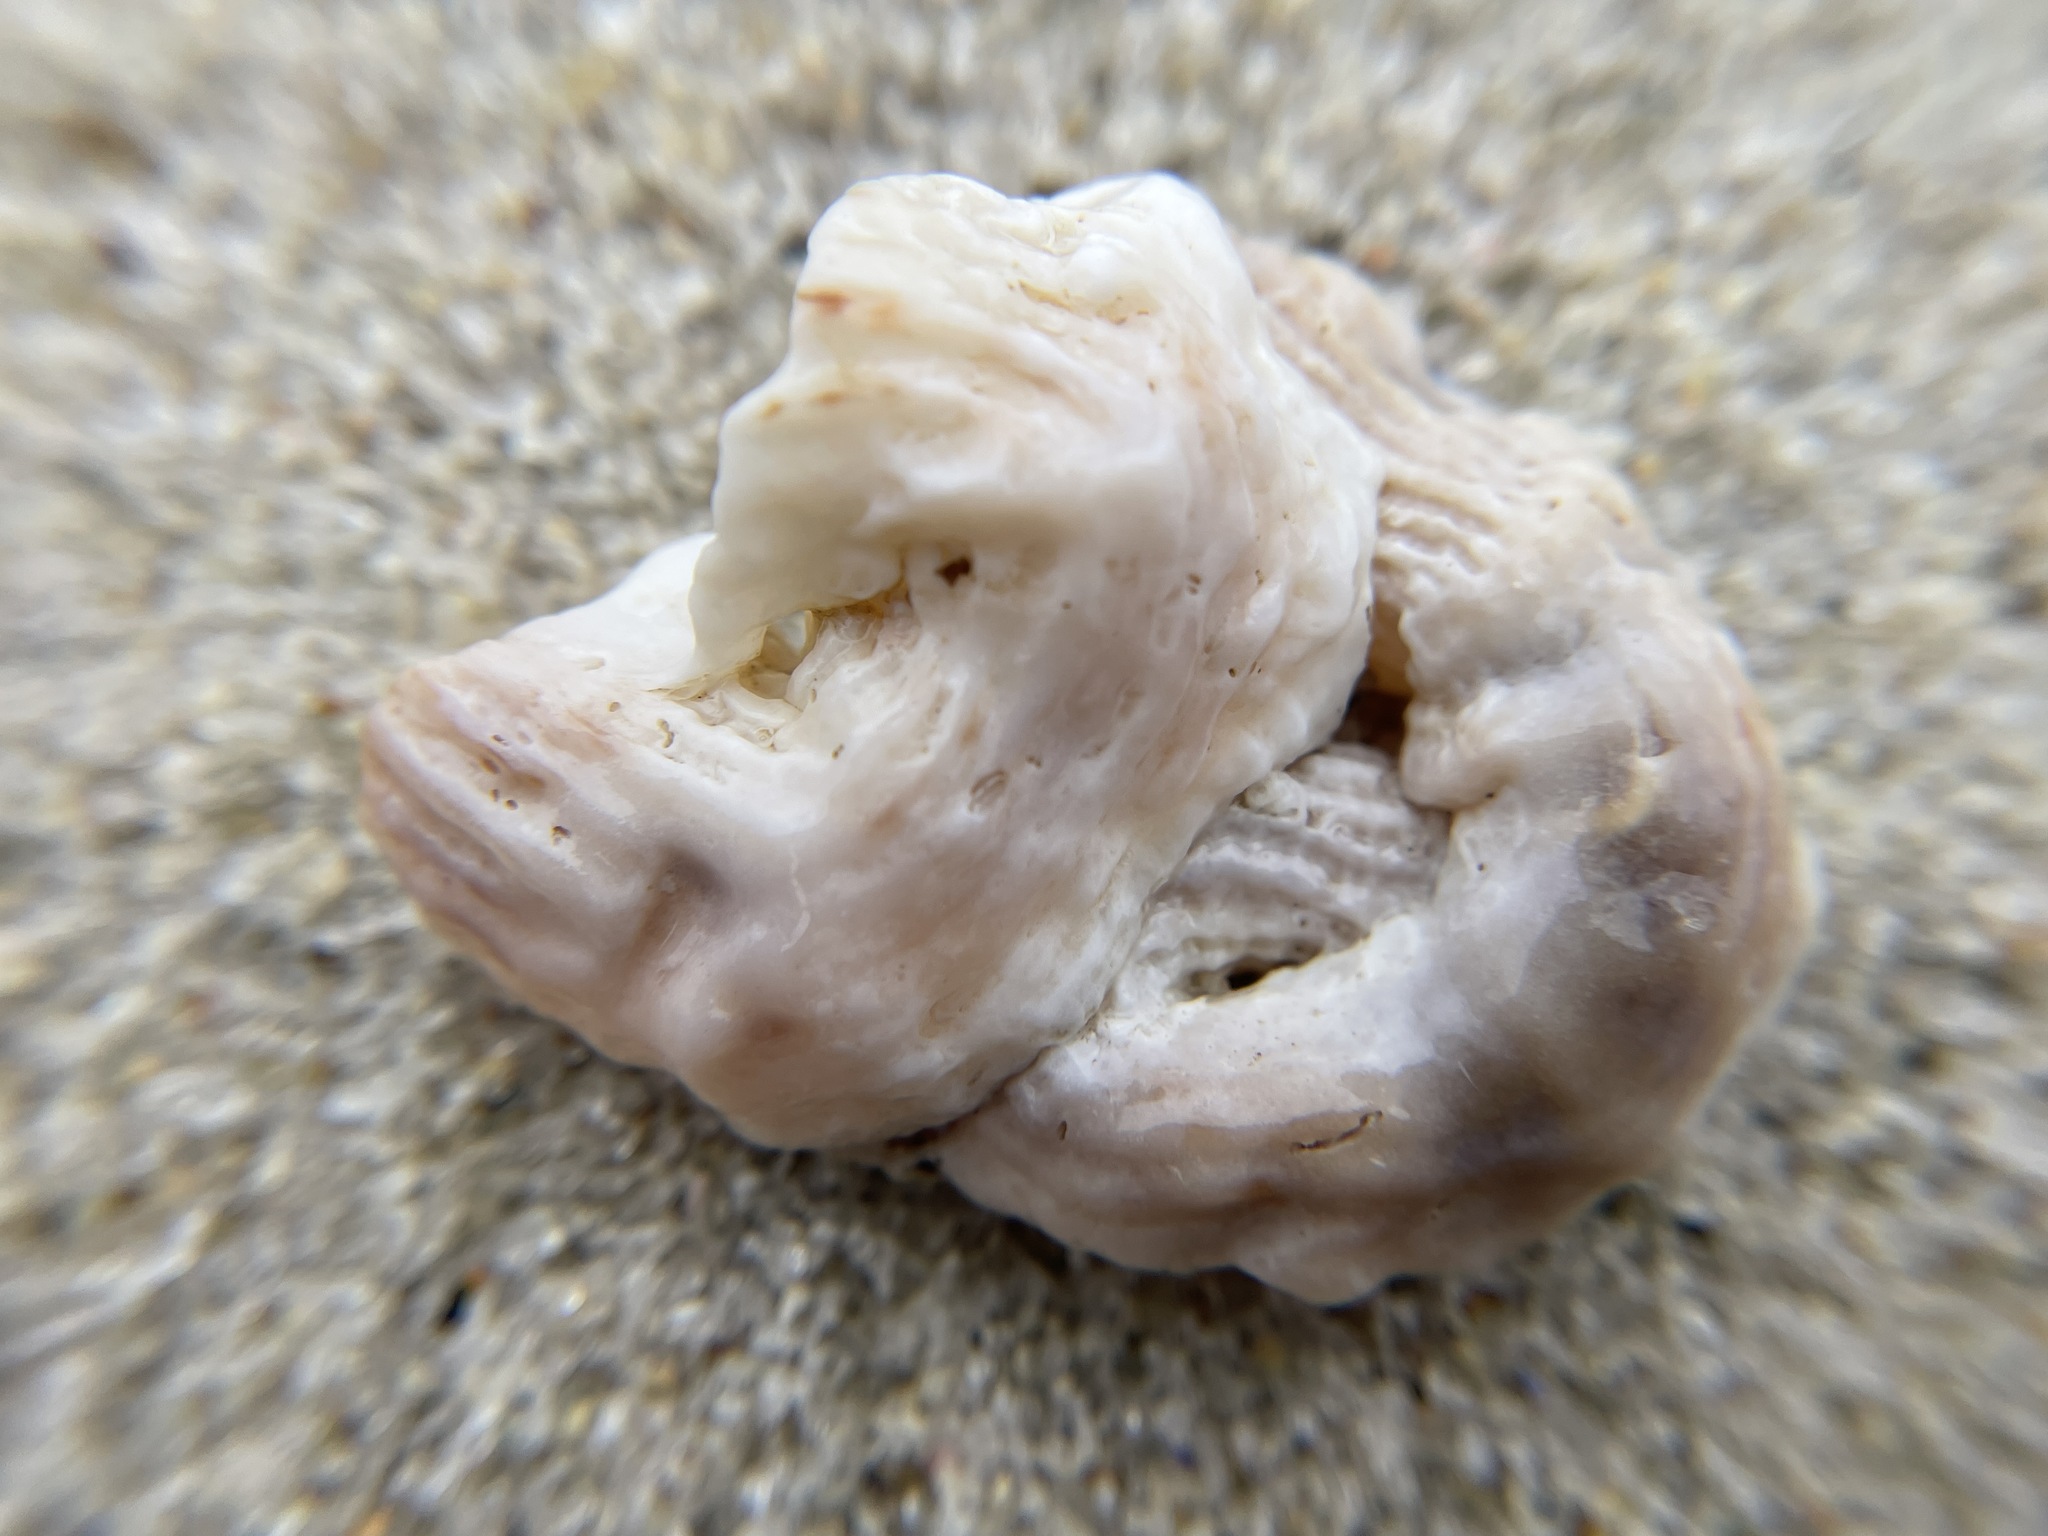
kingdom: Animalia
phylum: Mollusca
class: Gastropoda
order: Littorinimorpha
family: Vermetidae
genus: Thylacodes
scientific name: Thylacodes squamigerus
